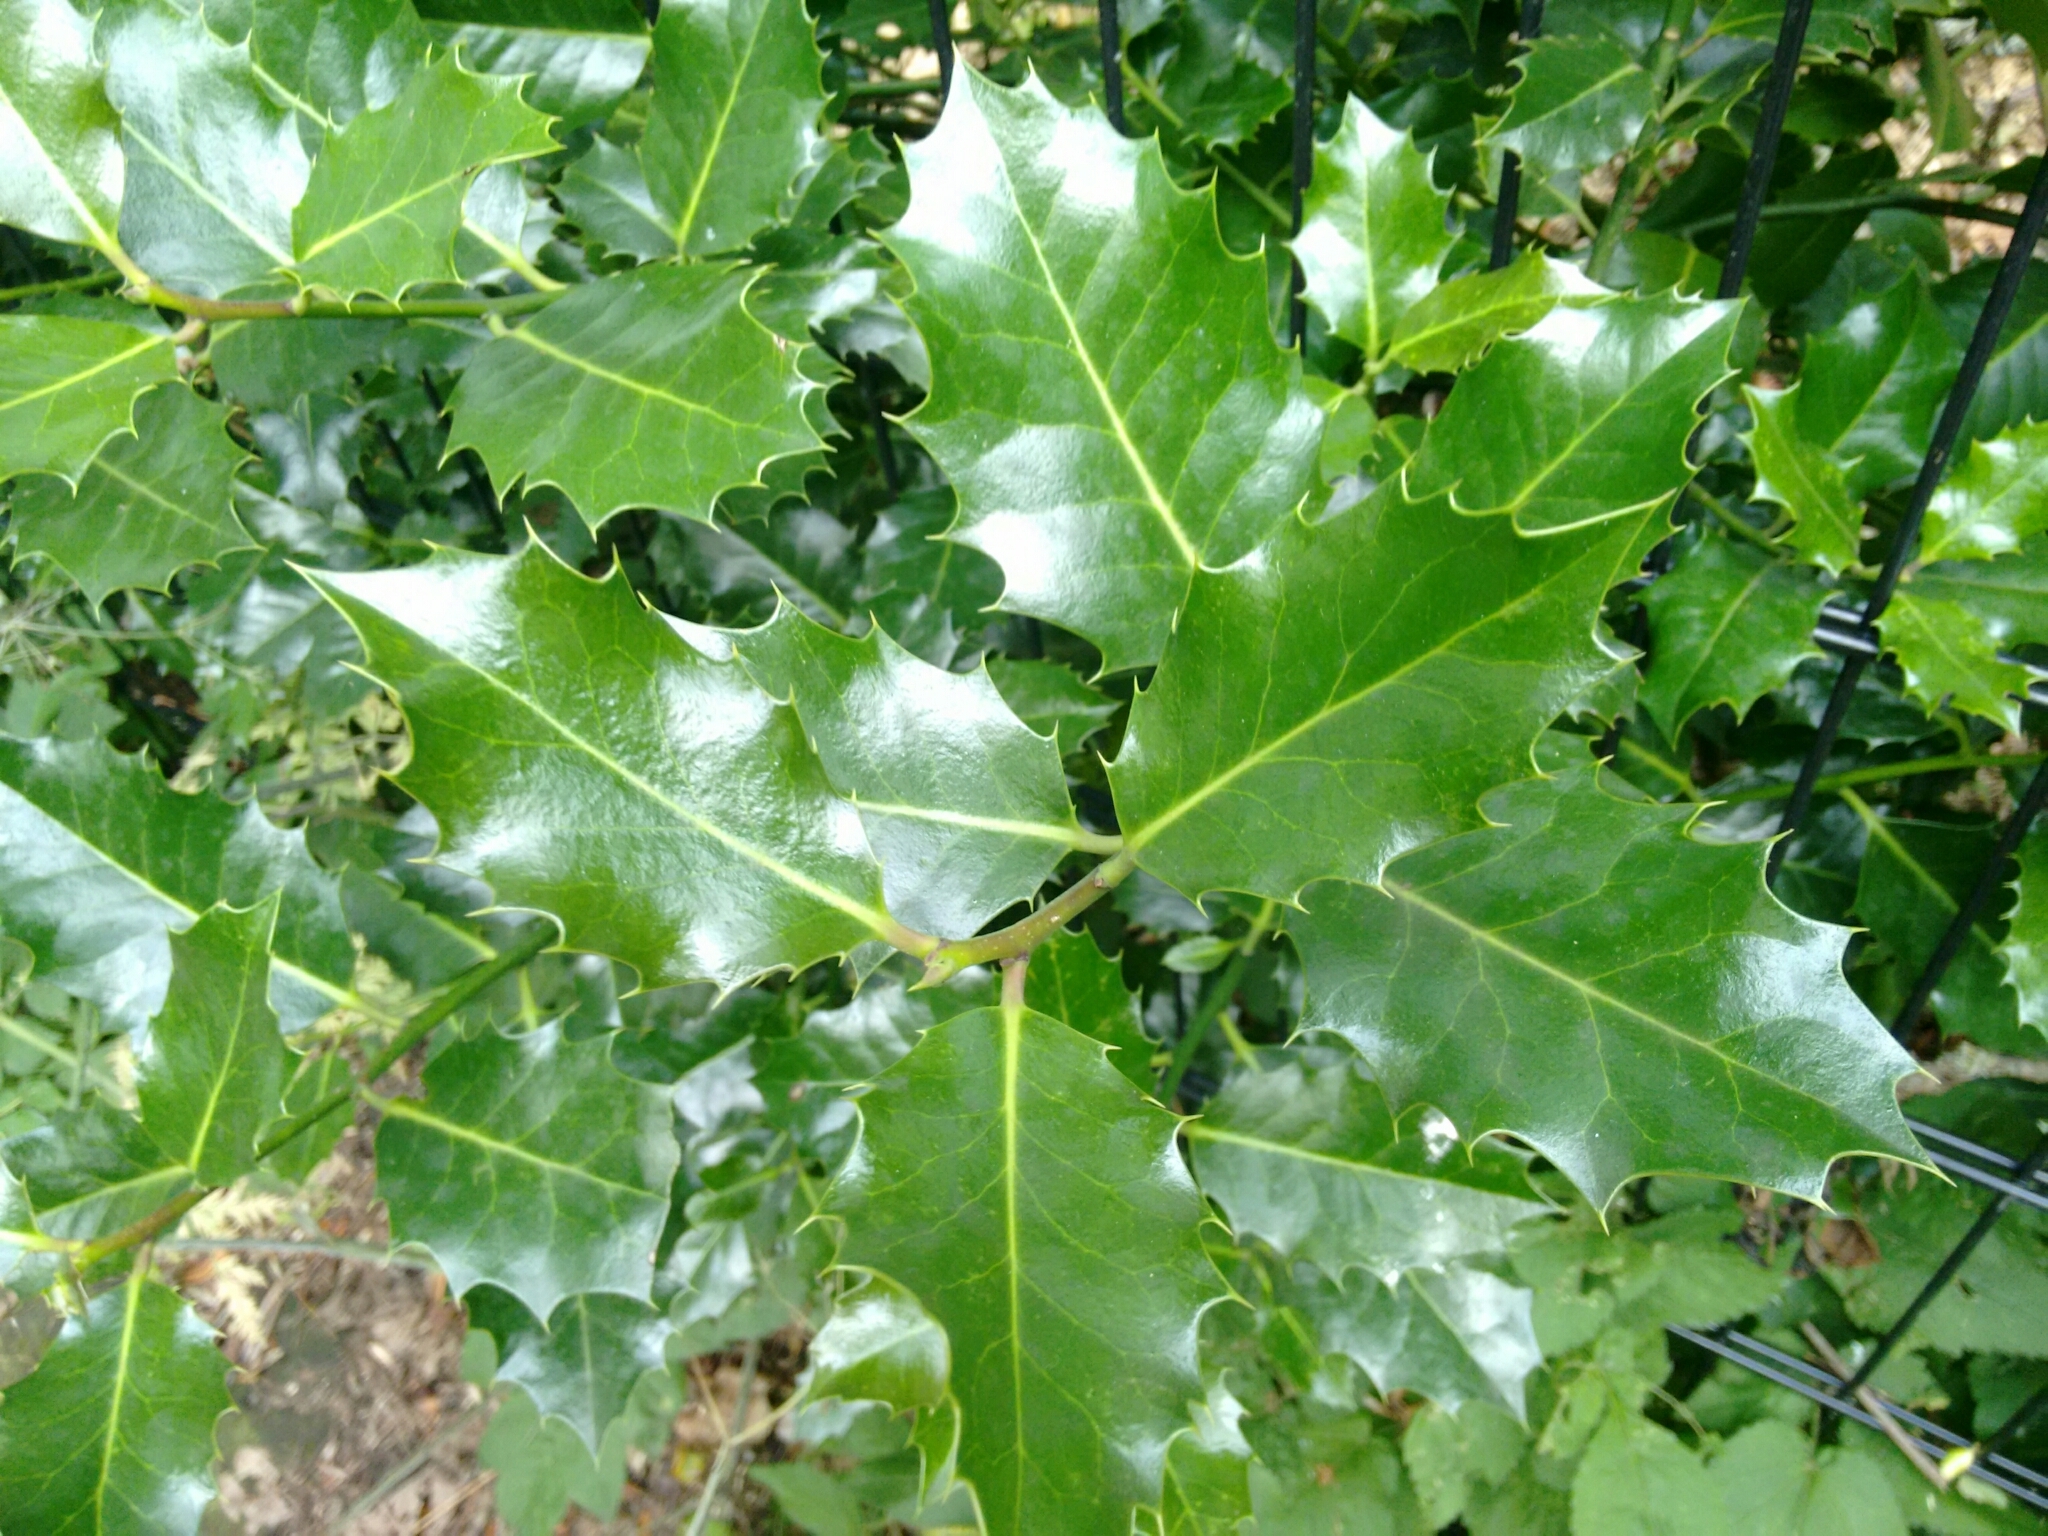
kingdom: Plantae
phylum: Tracheophyta
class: Magnoliopsida
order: Aquifoliales
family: Aquifoliaceae
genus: Ilex
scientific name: Ilex aquifolium
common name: English holly
